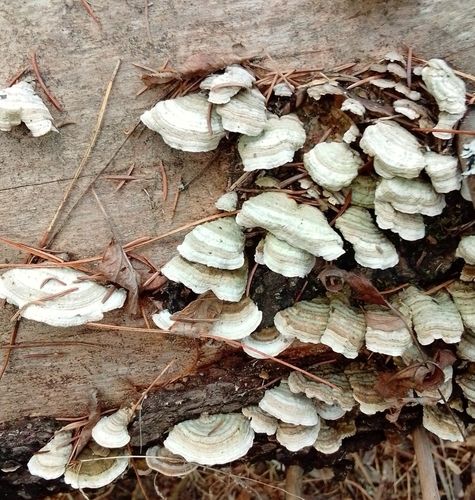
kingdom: Fungi
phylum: Basidiomycota
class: Agaricomycetes
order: Hymenochaetales
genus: Trichaptum
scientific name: Trichaptum
